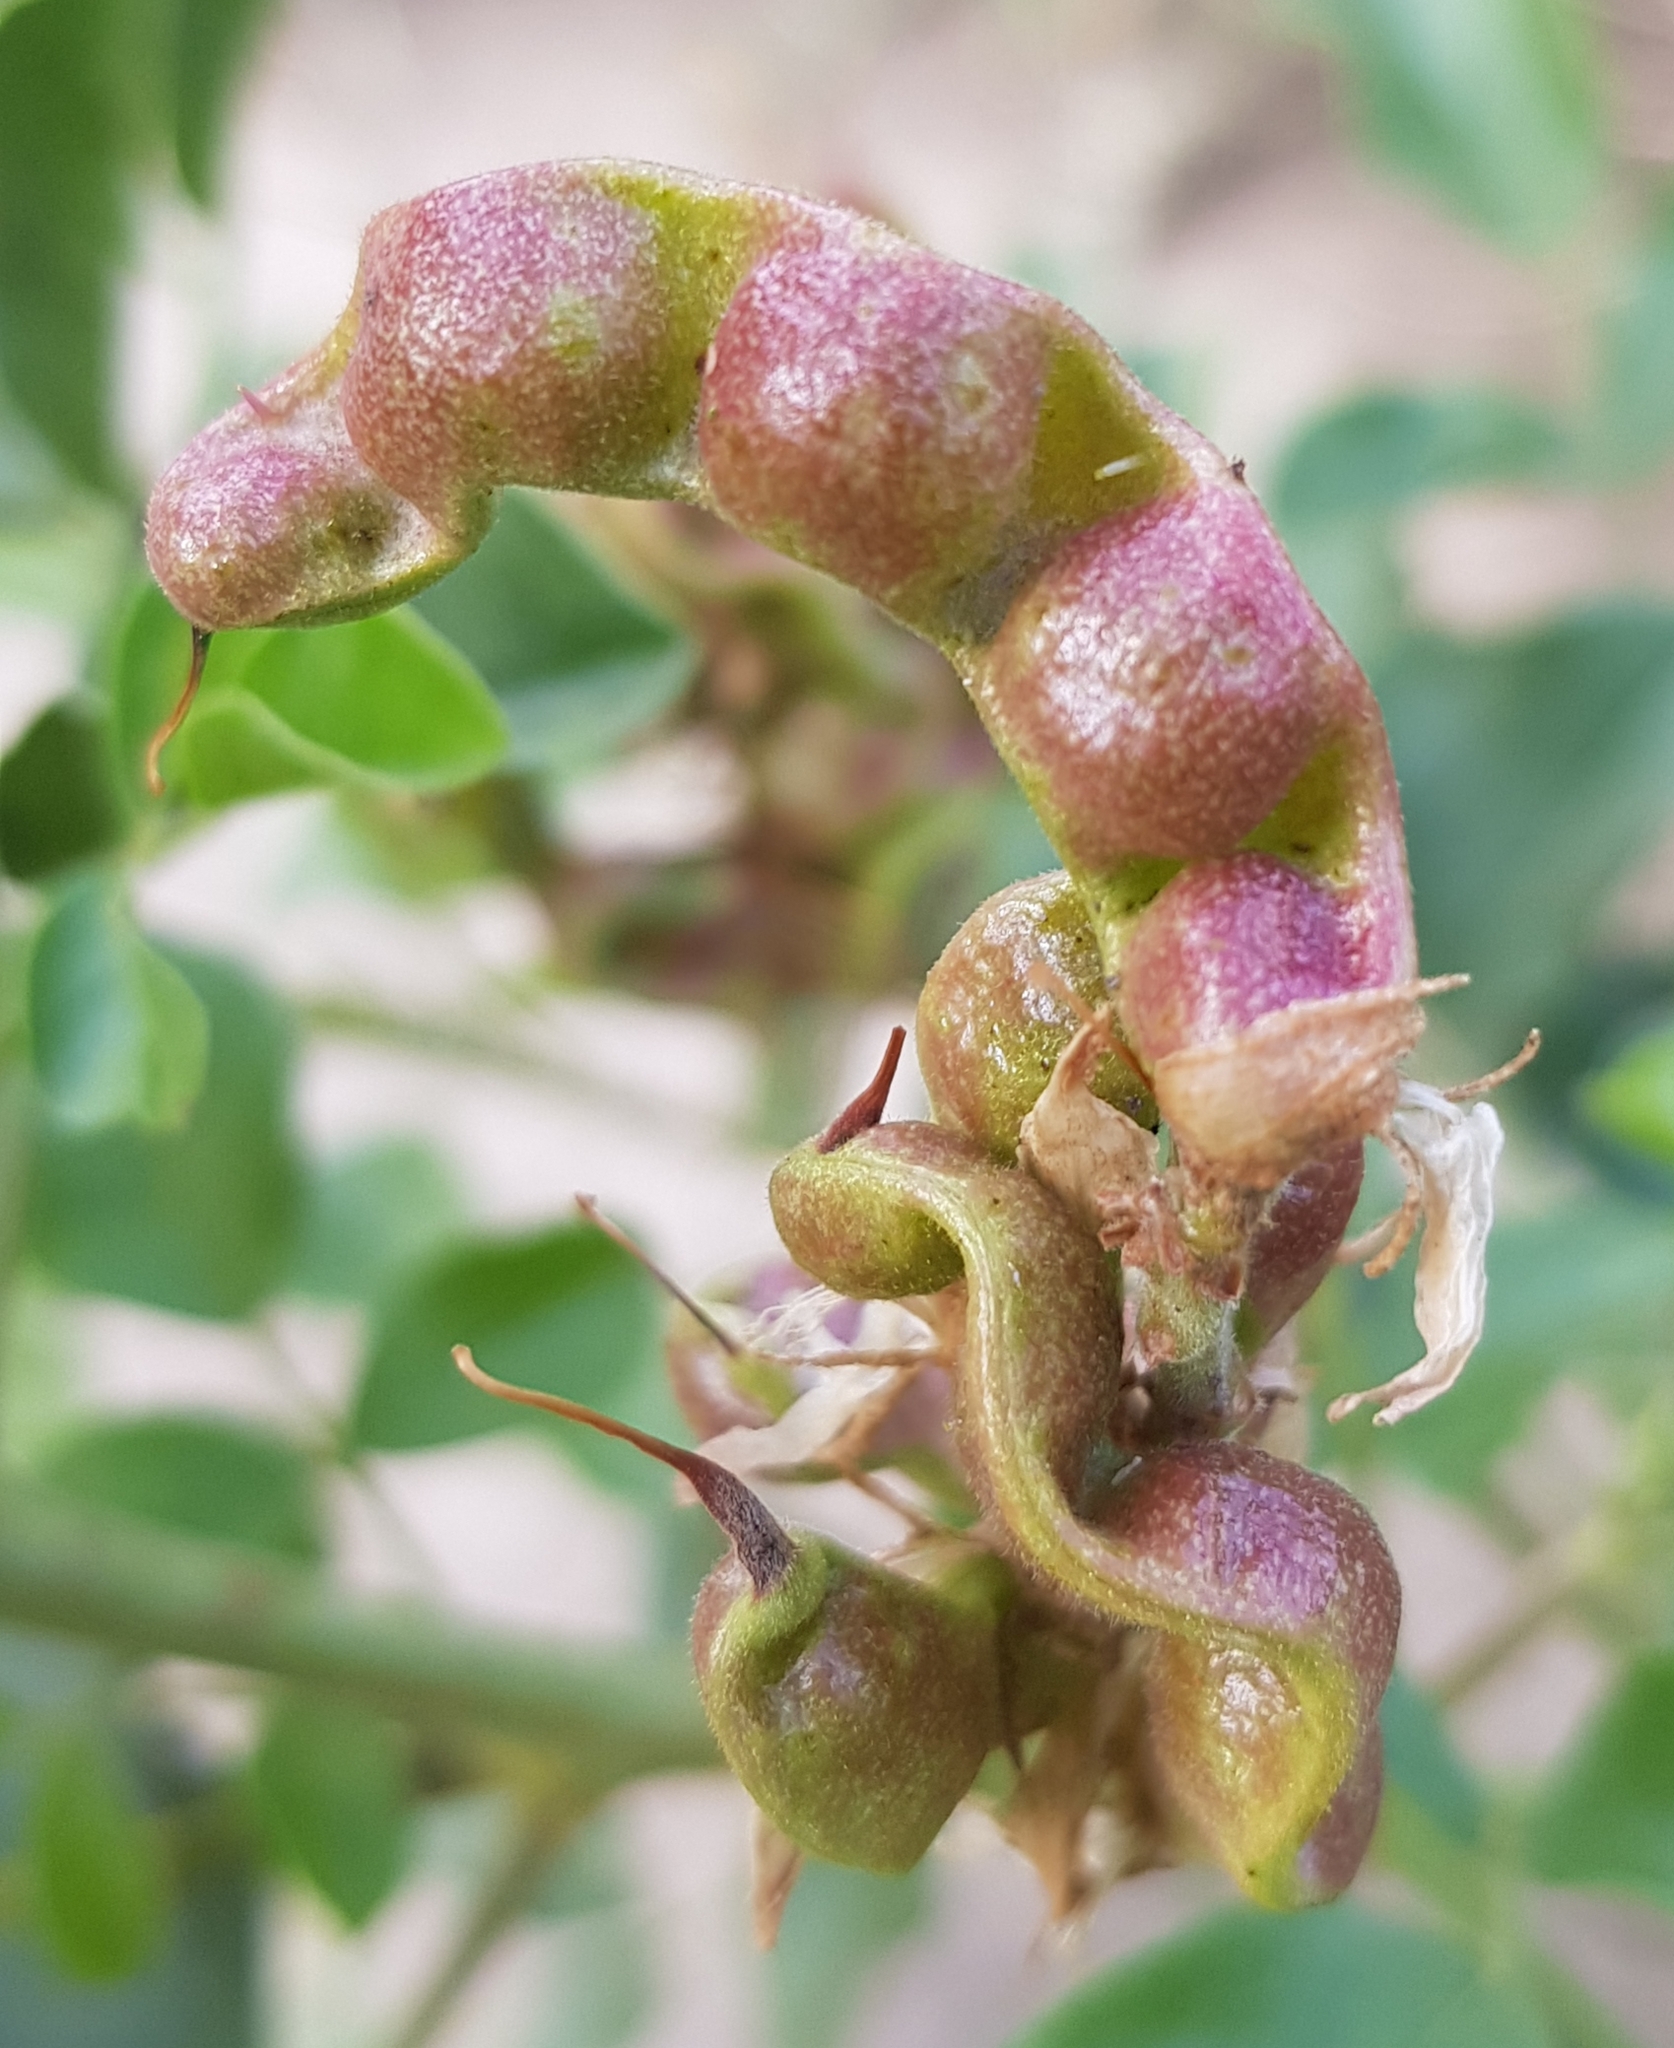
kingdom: Plantae
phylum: Tracheophyta
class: Magnoliopsida
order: Fabales
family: Fabaceae
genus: Glycyrrhiza
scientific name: Glycyrrhiza uralensis
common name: Chinese licorice
